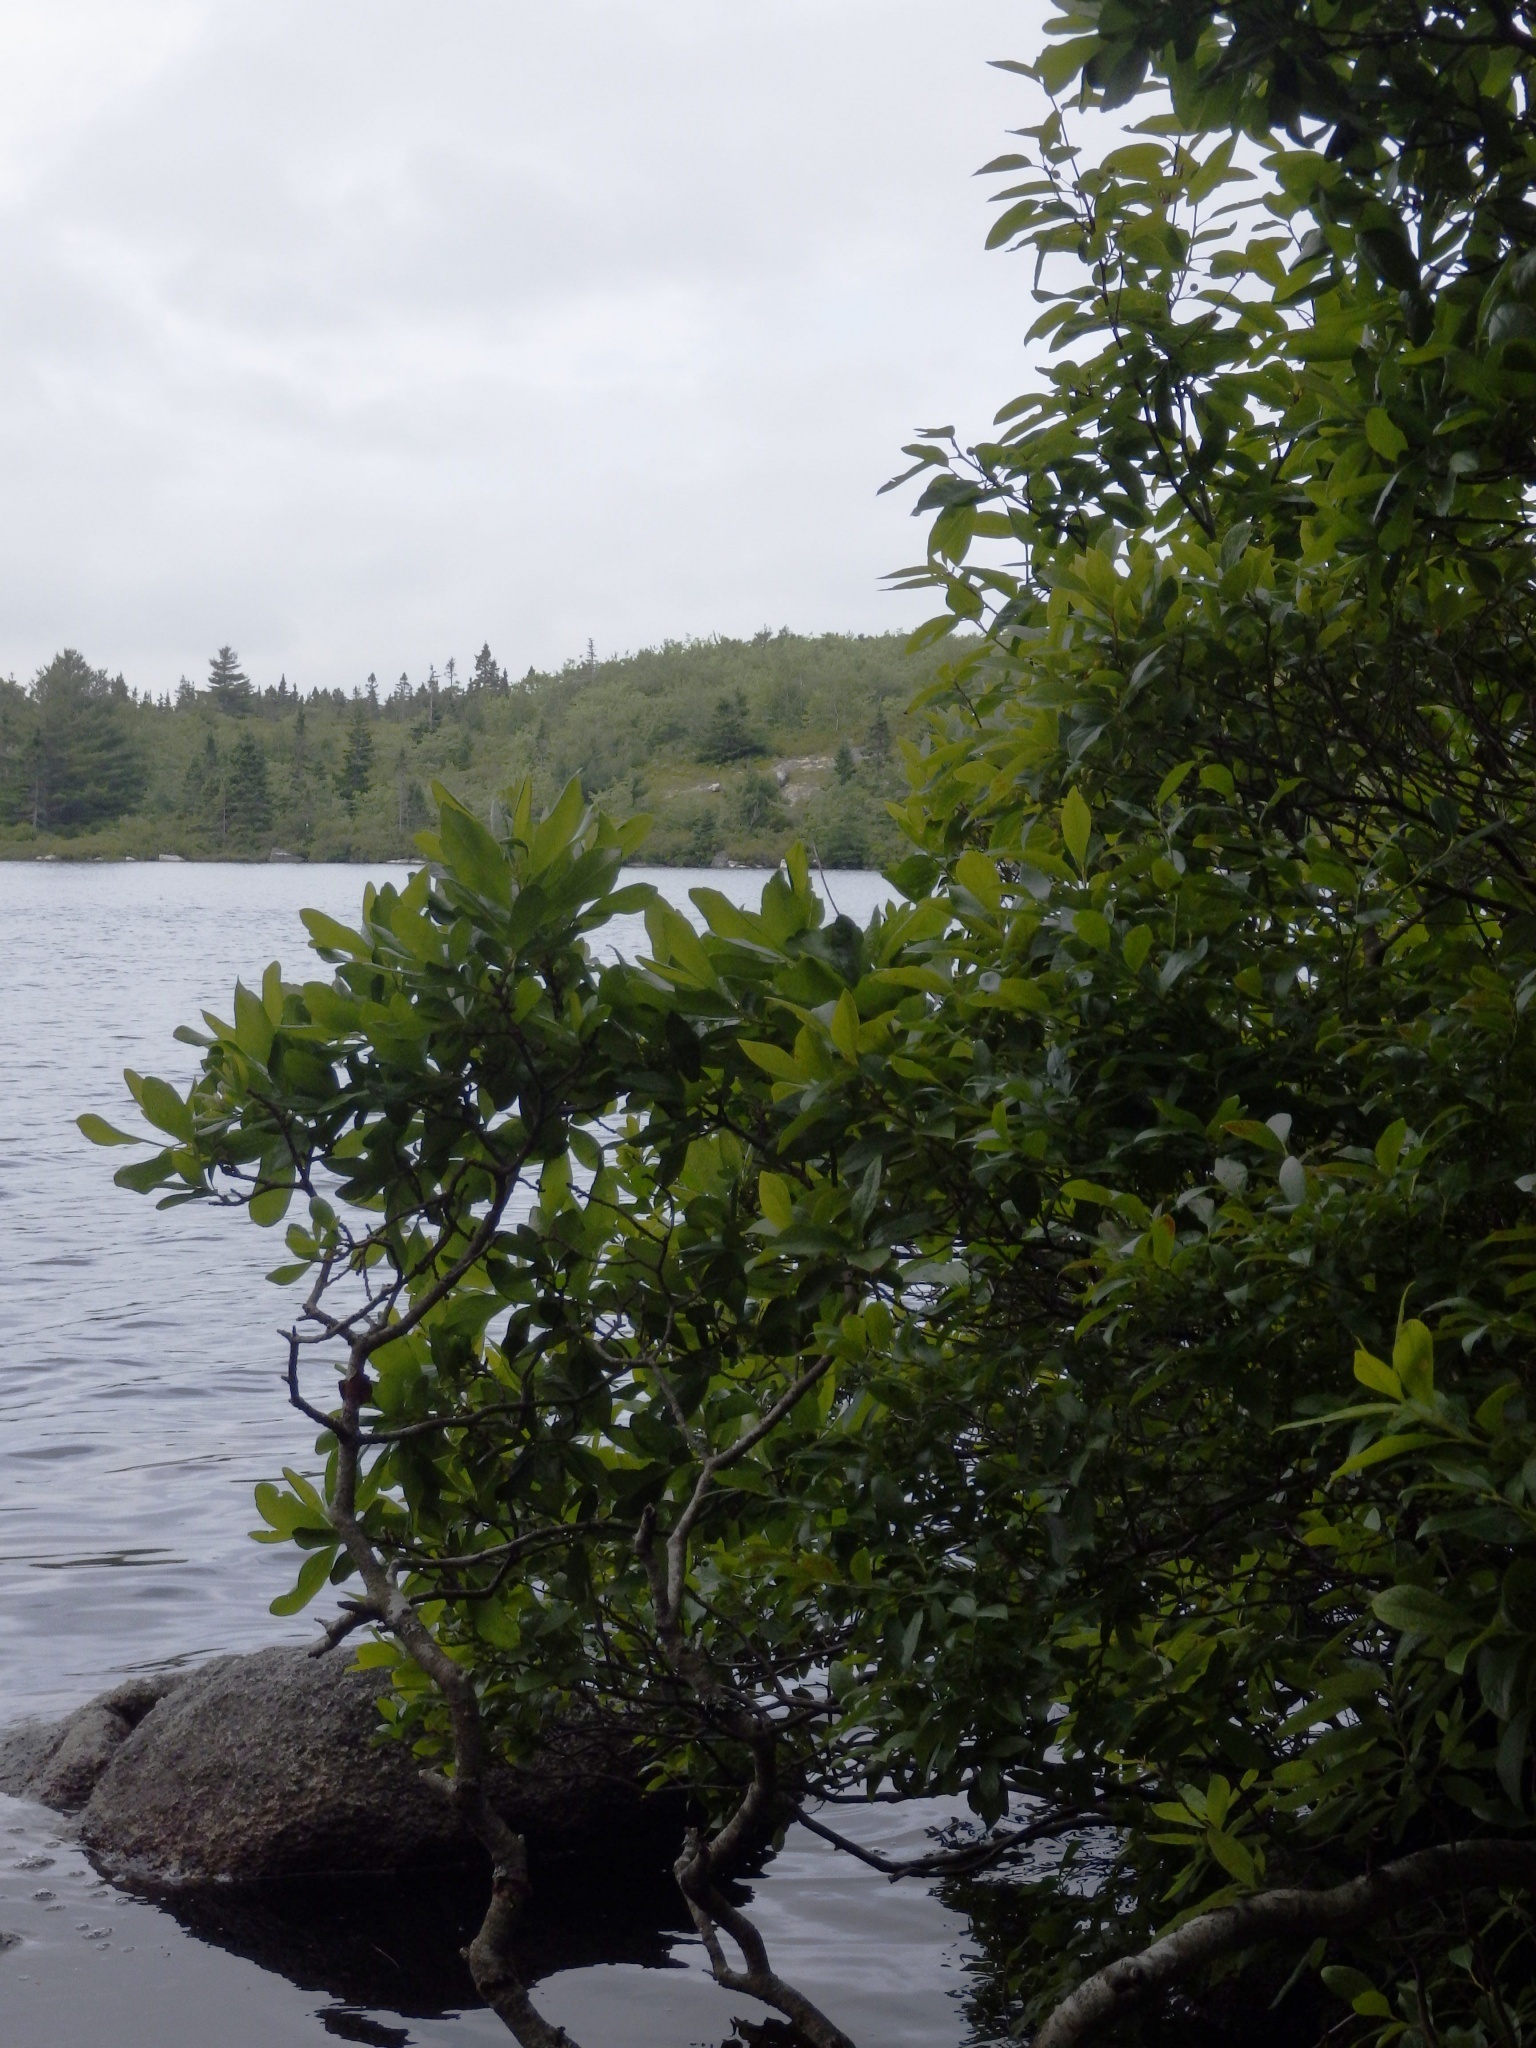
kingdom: Plantae
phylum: Tracheophyta
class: Magnoliopsida
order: Fagales
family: Myricaceae
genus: Morella
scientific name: Morella pensylvanica
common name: Northern bayberry
